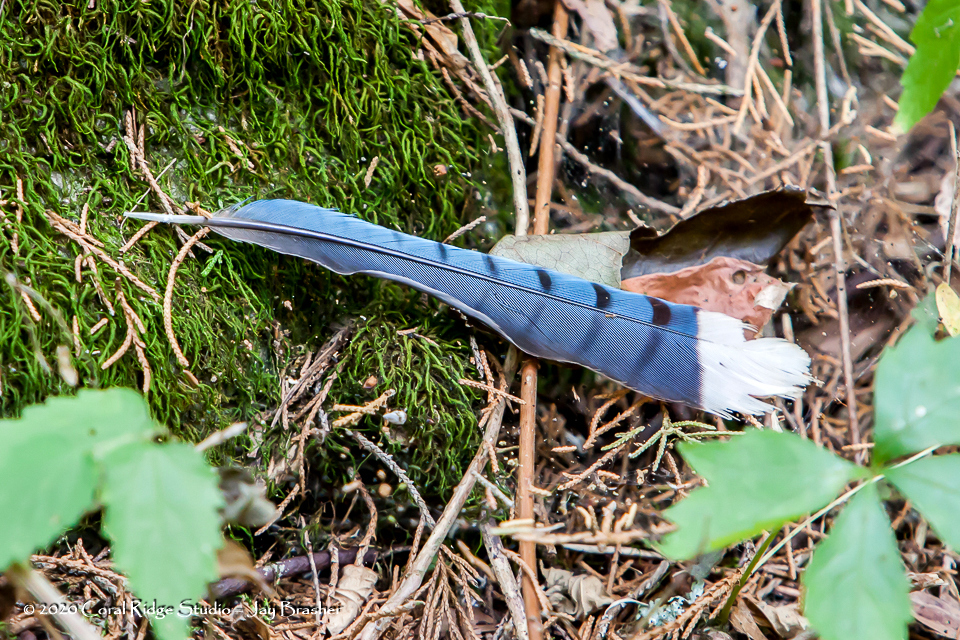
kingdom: Animalia
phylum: Chordata
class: Aves
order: Passeriformes
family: Corvidae
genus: Cyanocitta
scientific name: Cyanocitta cristata
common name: Blue jay
